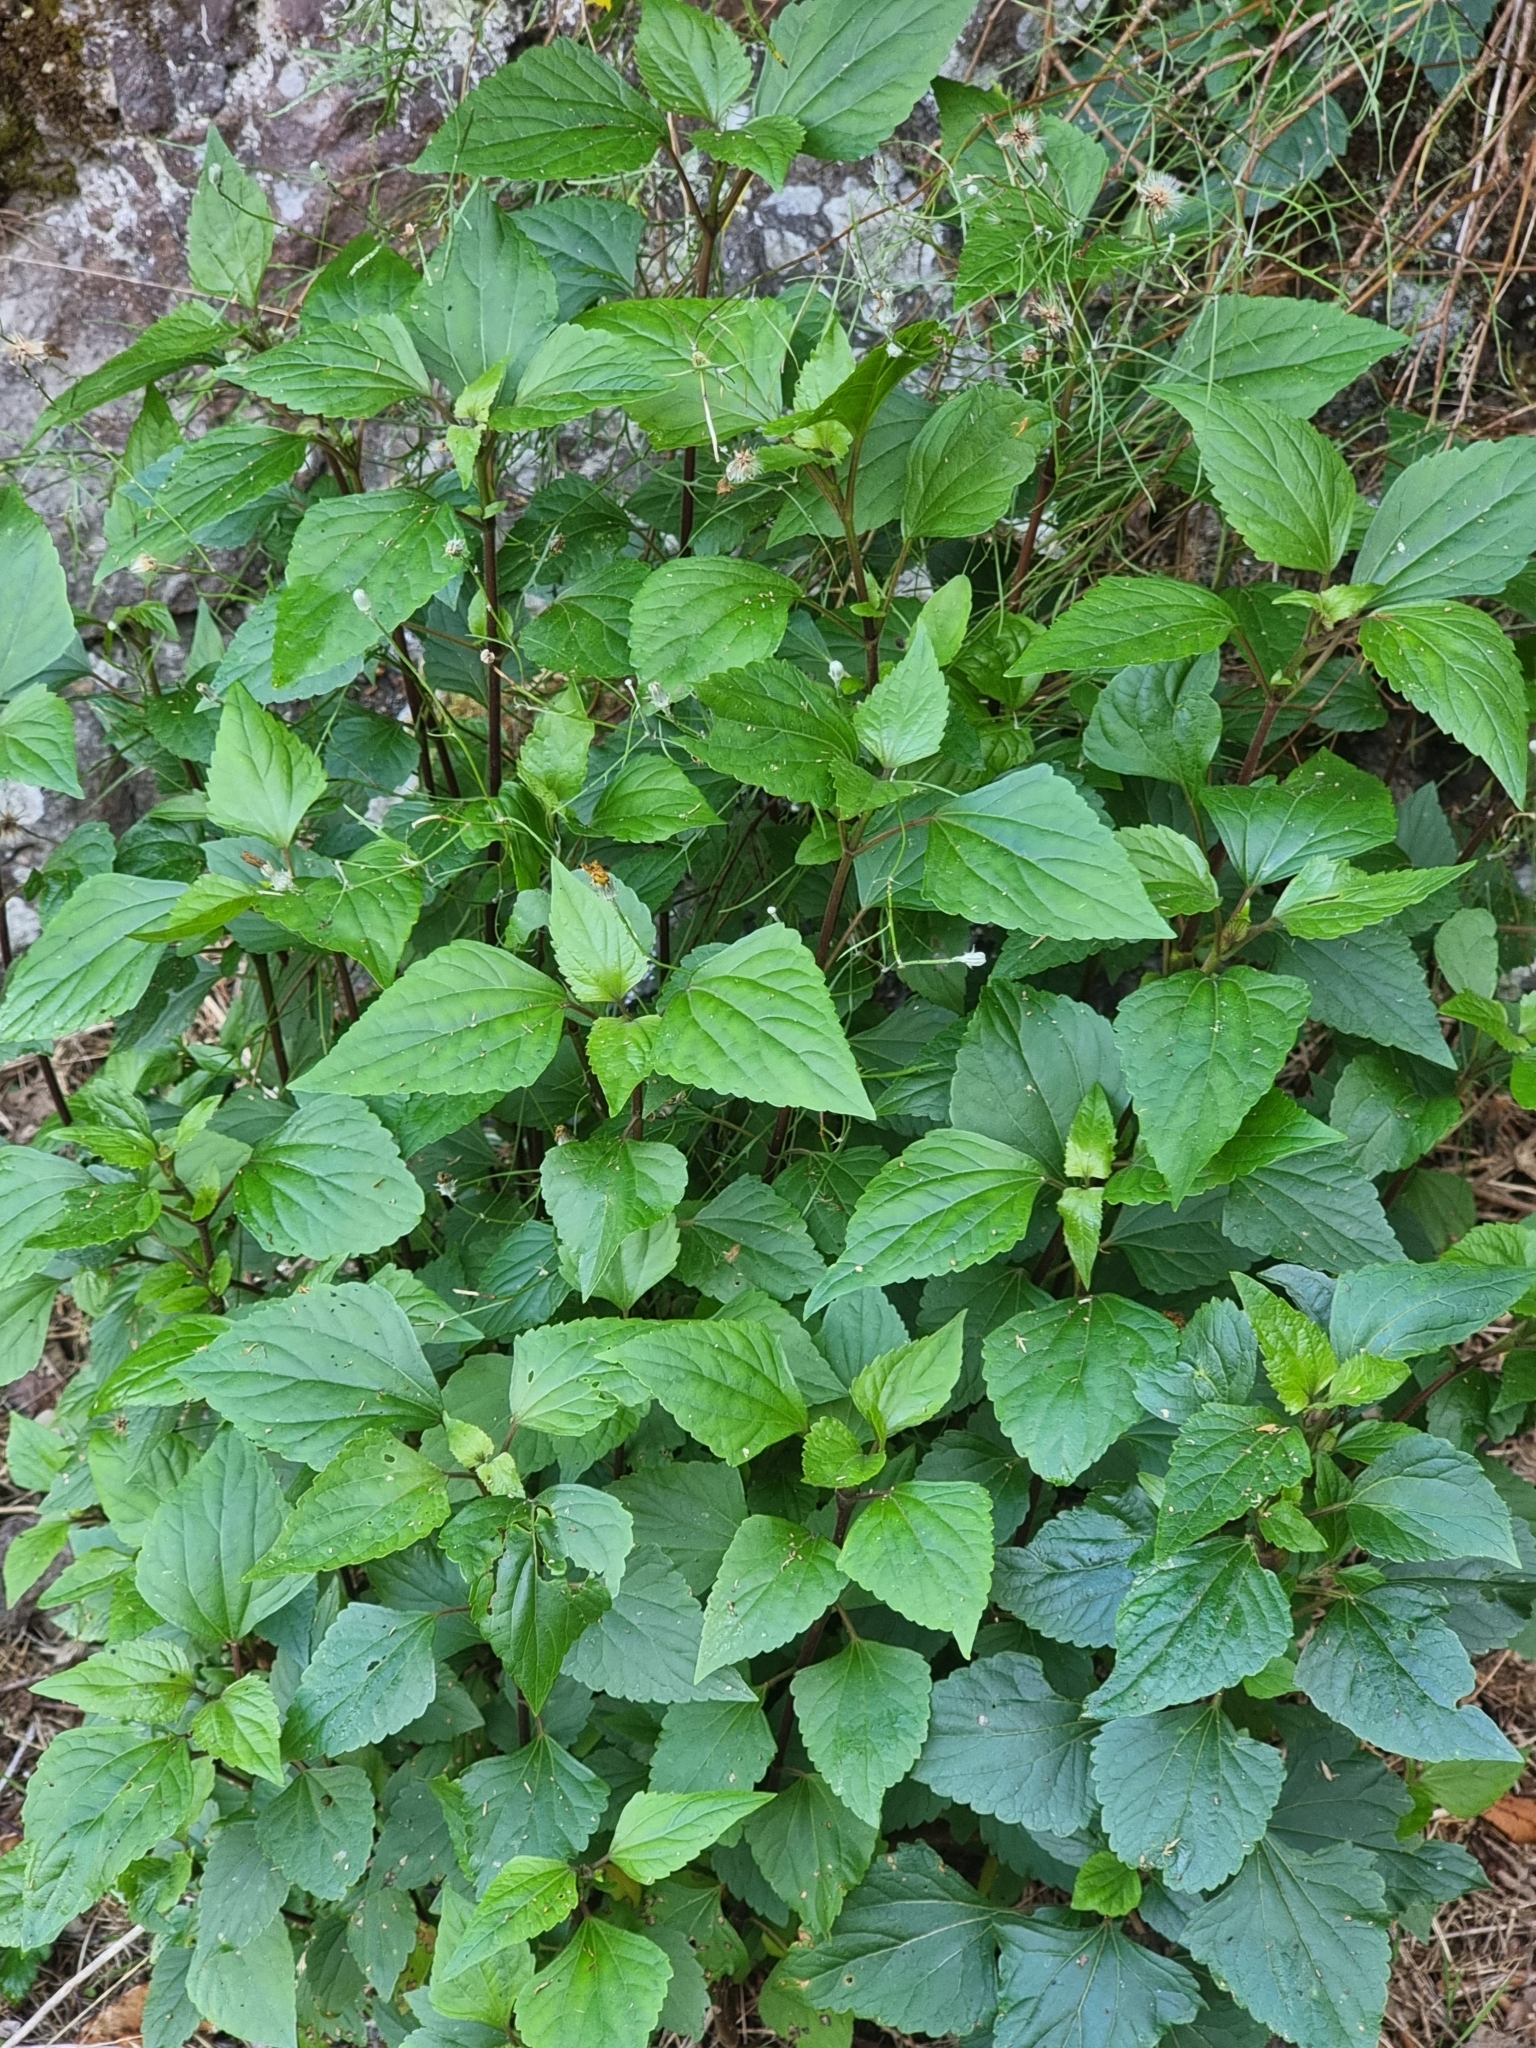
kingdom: Plantae
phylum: Tracheophyta
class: Magnoliopsida
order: Asterales
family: Asteraceae
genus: Ageratina
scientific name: Ageratina adenophora
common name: Sticky snakeroot
